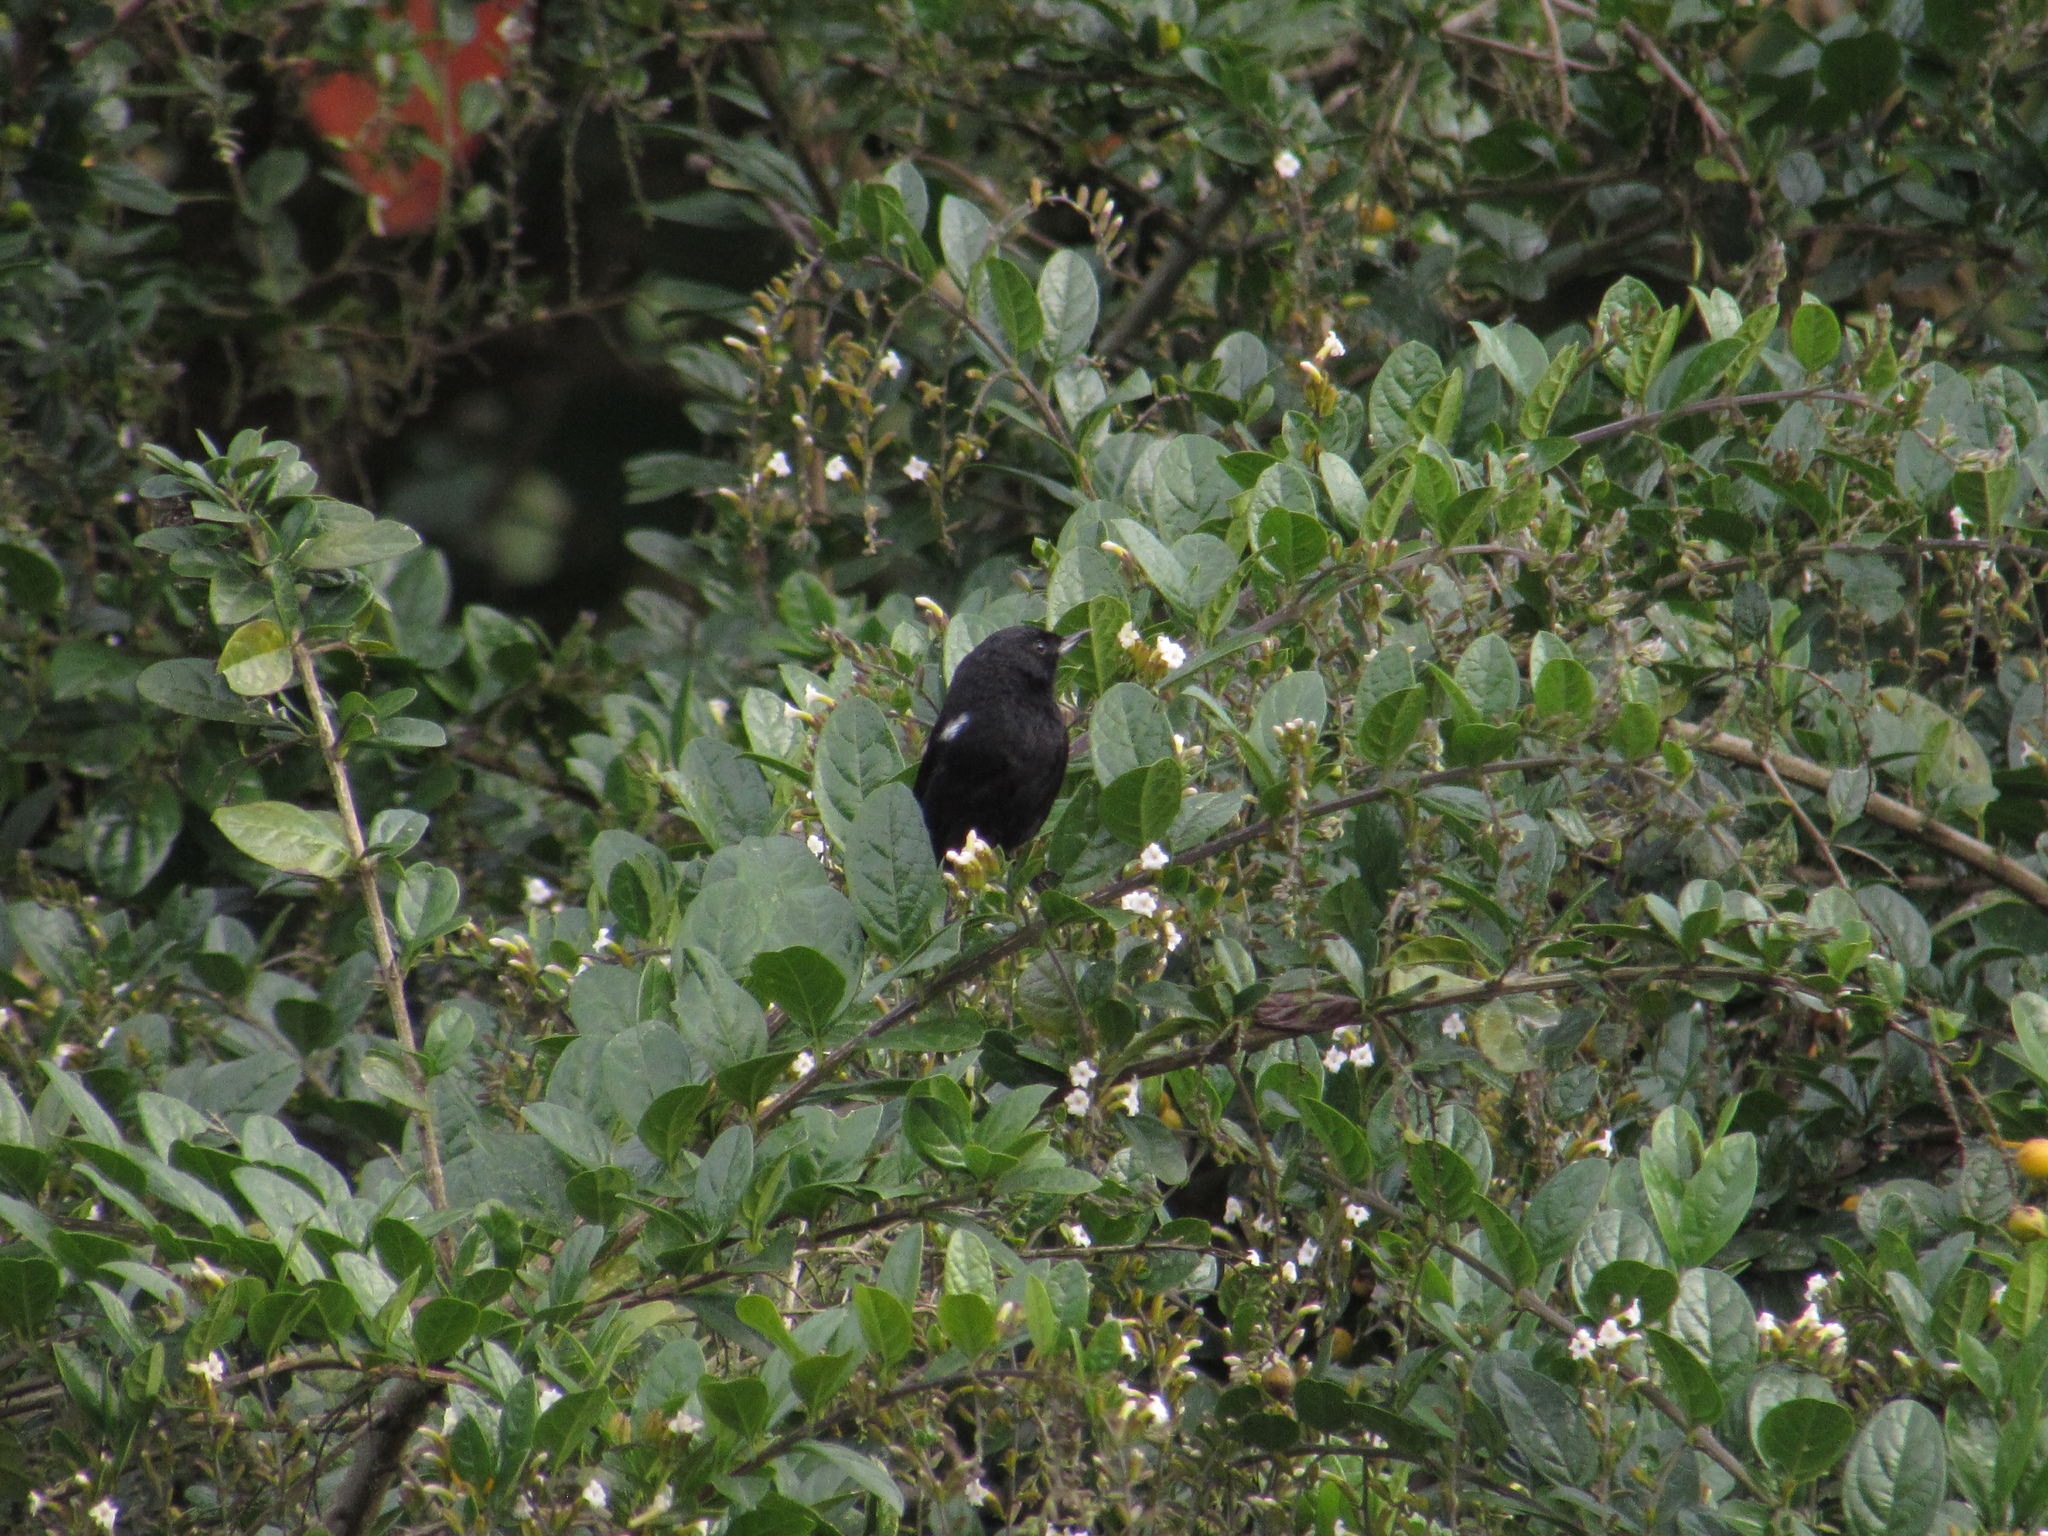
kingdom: Animalia
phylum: Chordata
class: Aves
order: Passeriformes
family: Thraupidae
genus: Diglossa
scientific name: Diglossa humeralis
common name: Black flowerpiercer
